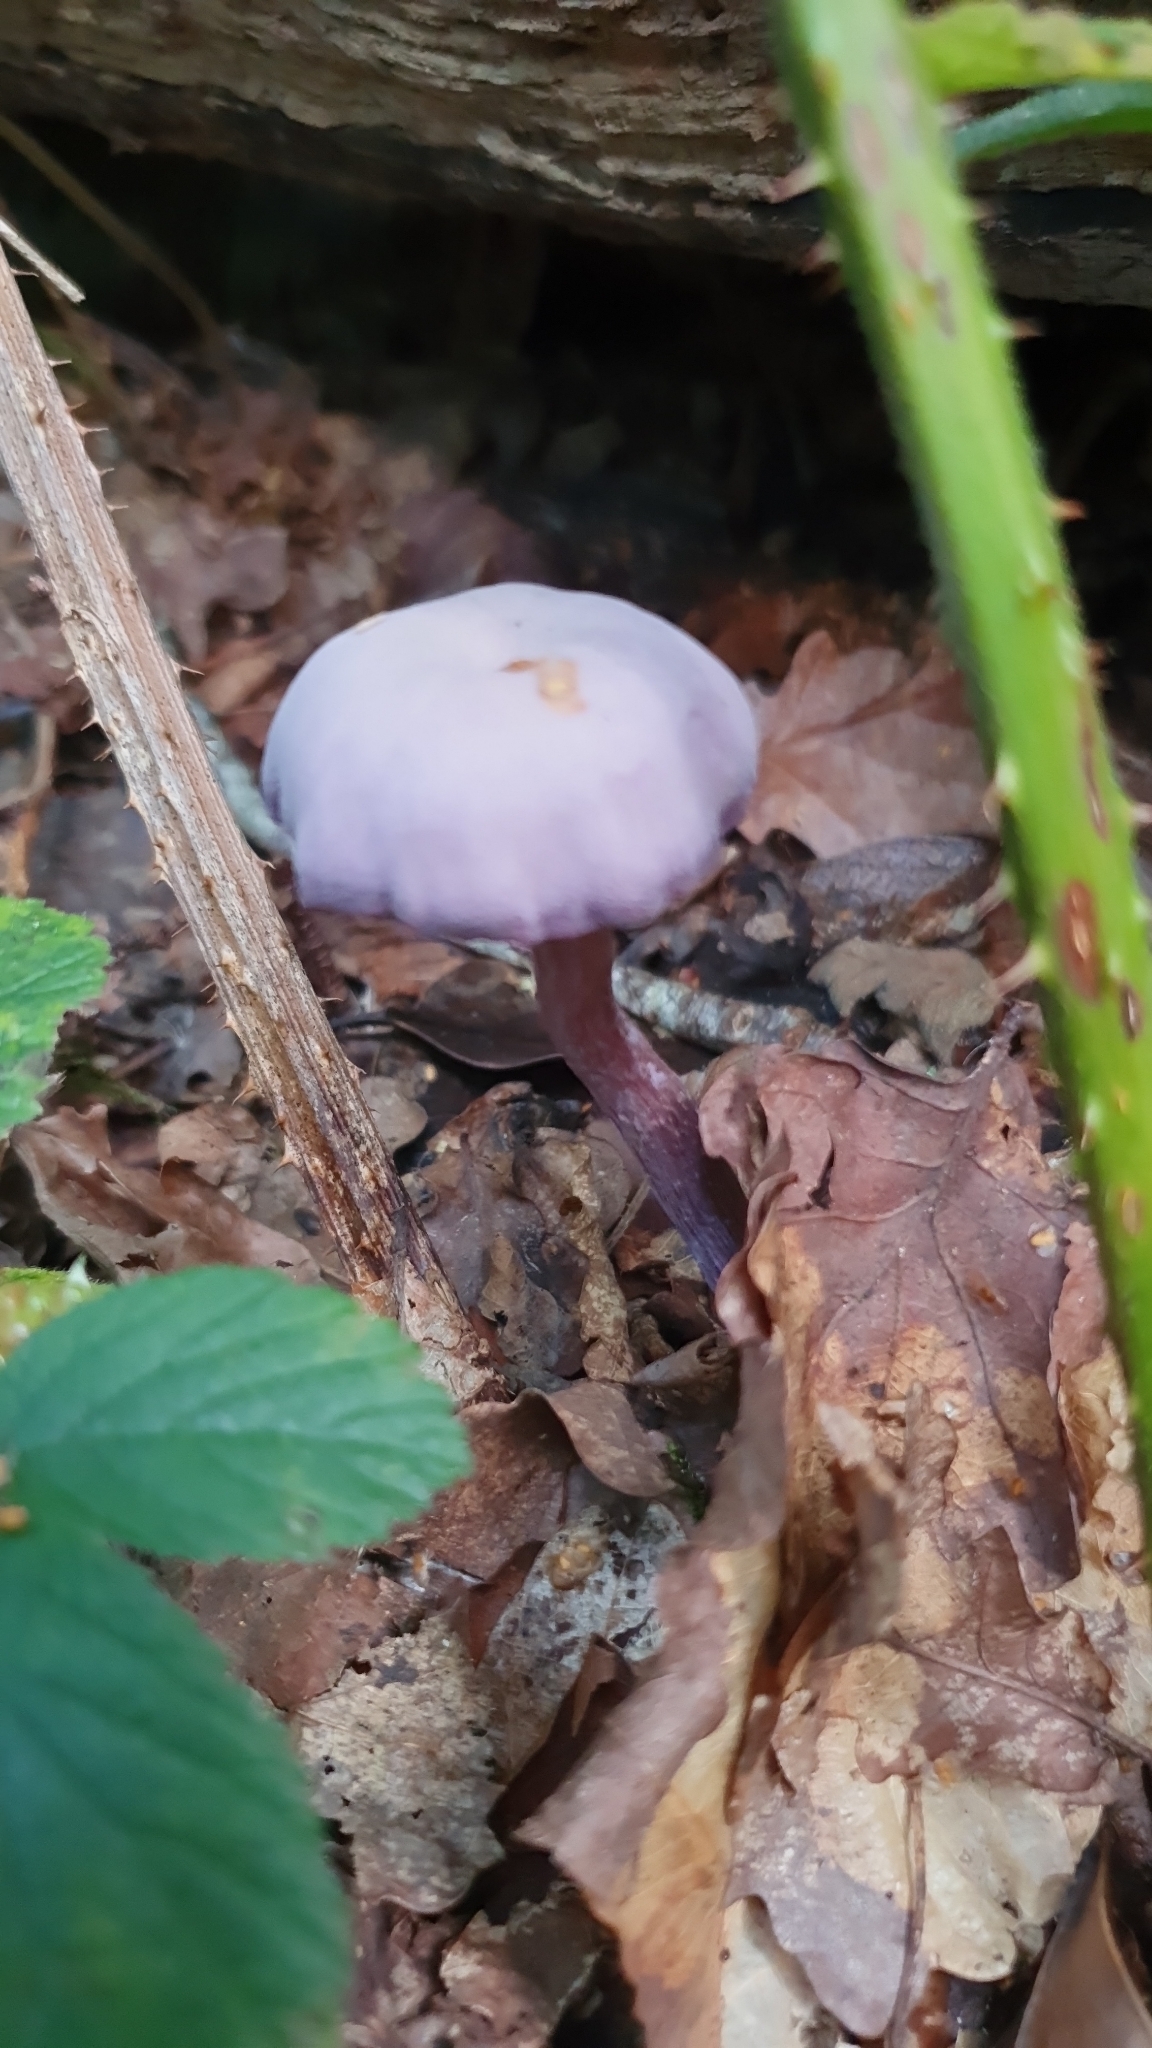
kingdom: Fungi
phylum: Basidiomycota
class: Agaricomycetes
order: Agaricales
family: Hydnangiaceae
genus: Laccaria
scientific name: Laccaria amethystina
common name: Amethyst deceiver
